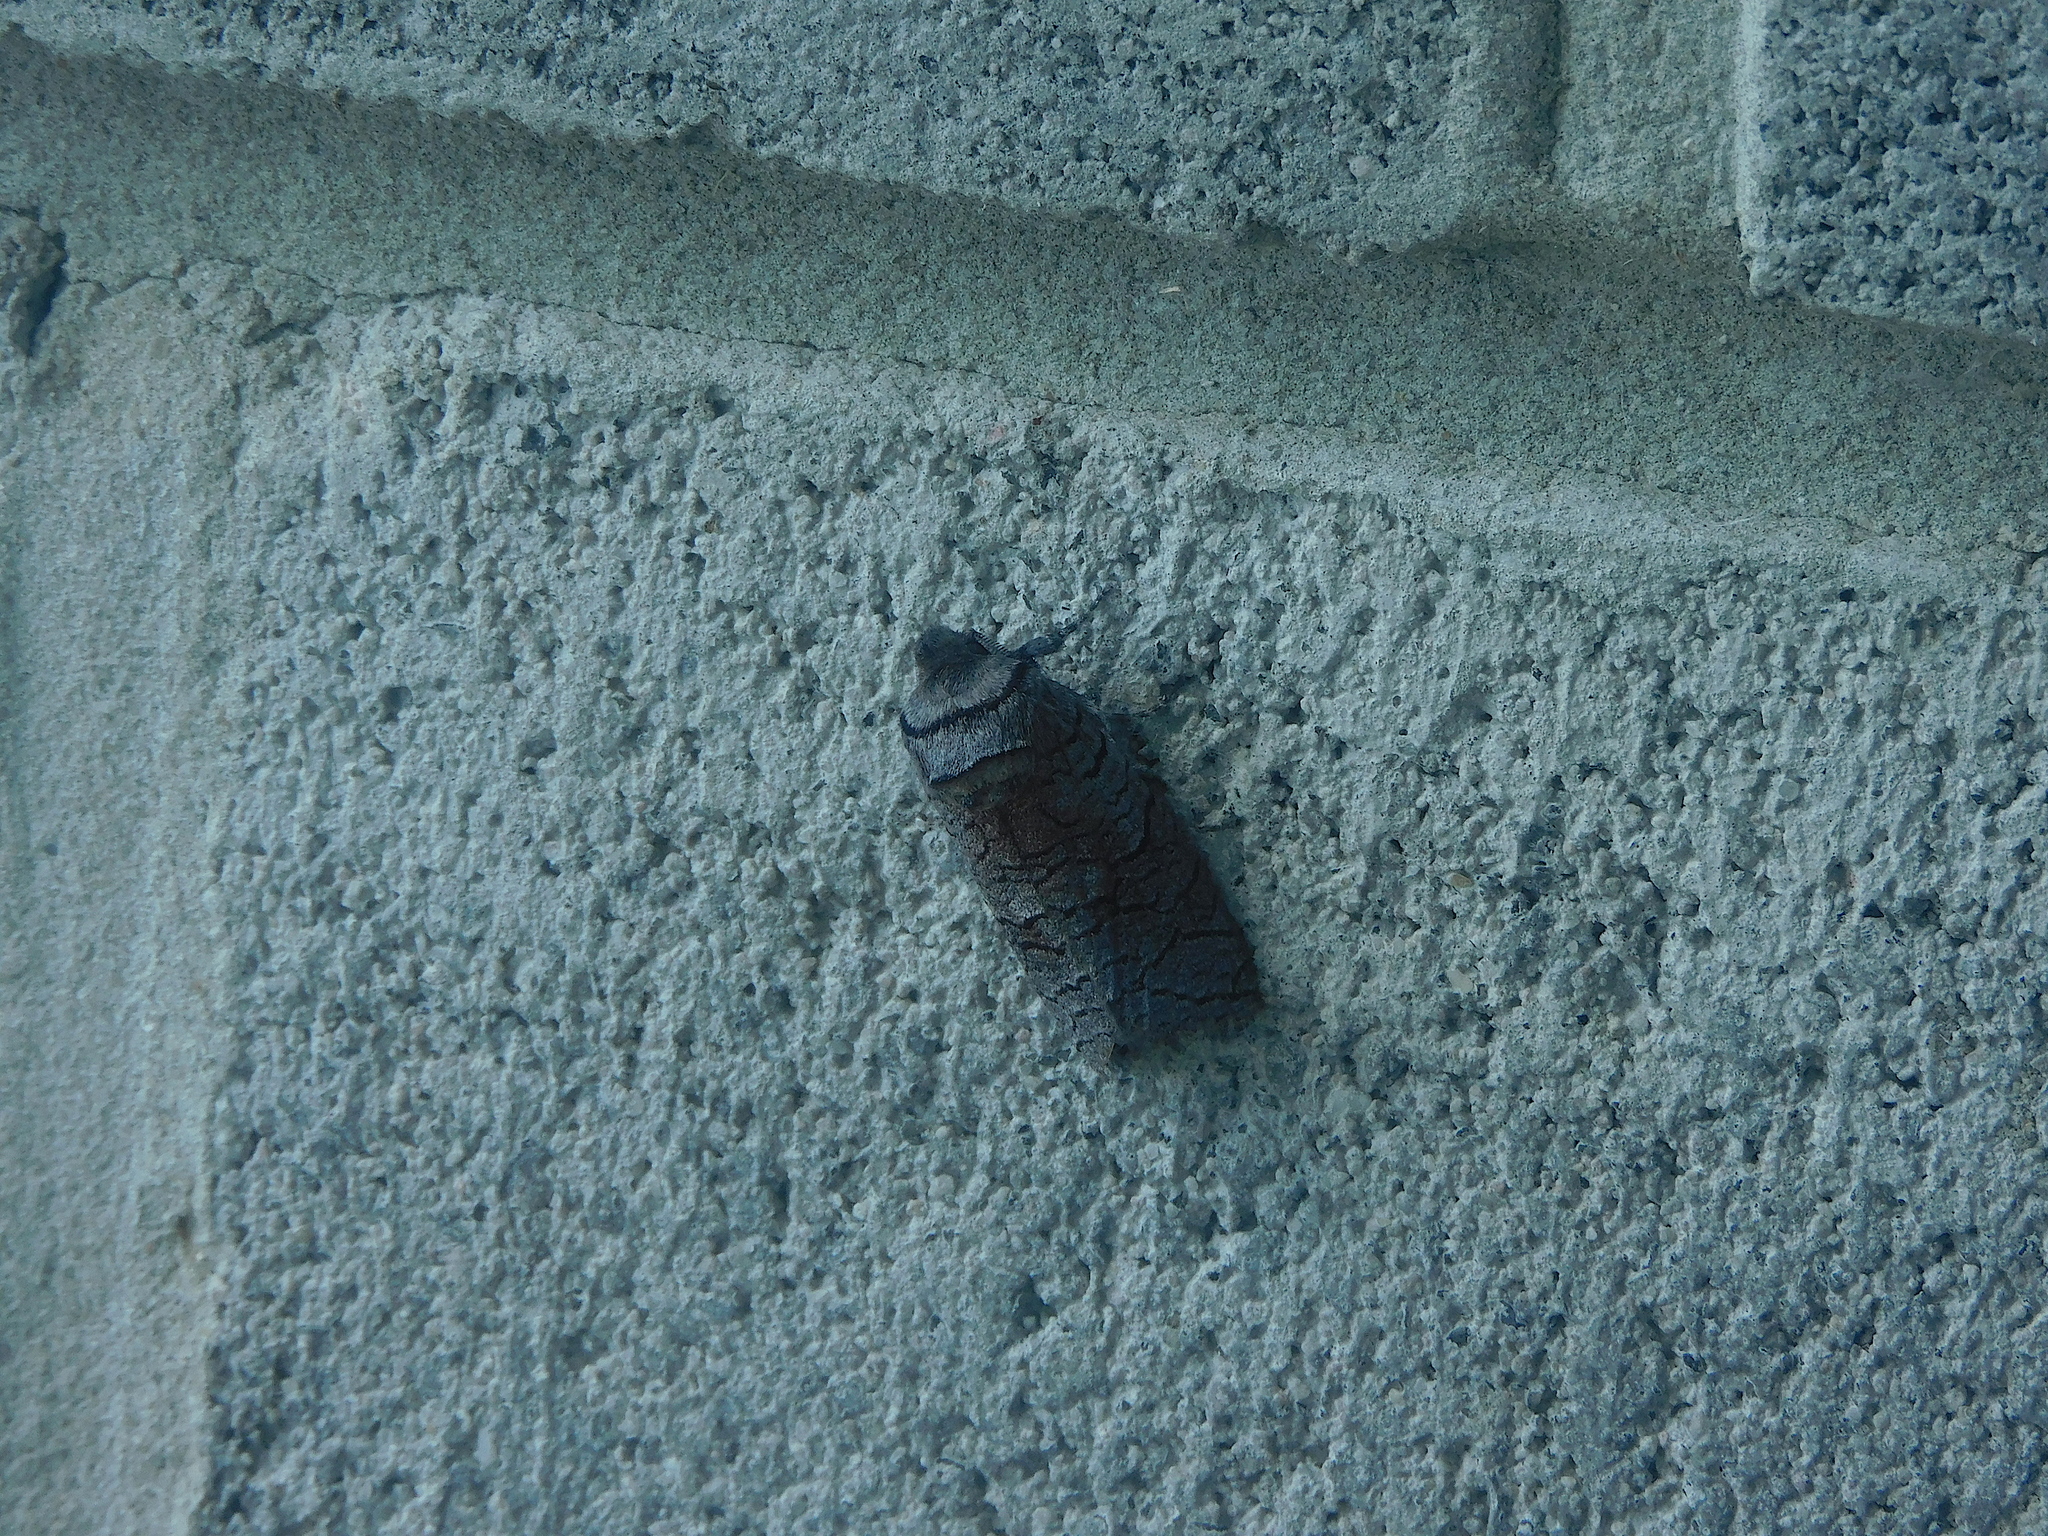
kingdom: Animalia
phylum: Arthropoda
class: Insecta
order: Lepidoptera
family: Cossidae
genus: Culama
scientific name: Culama suffusca
